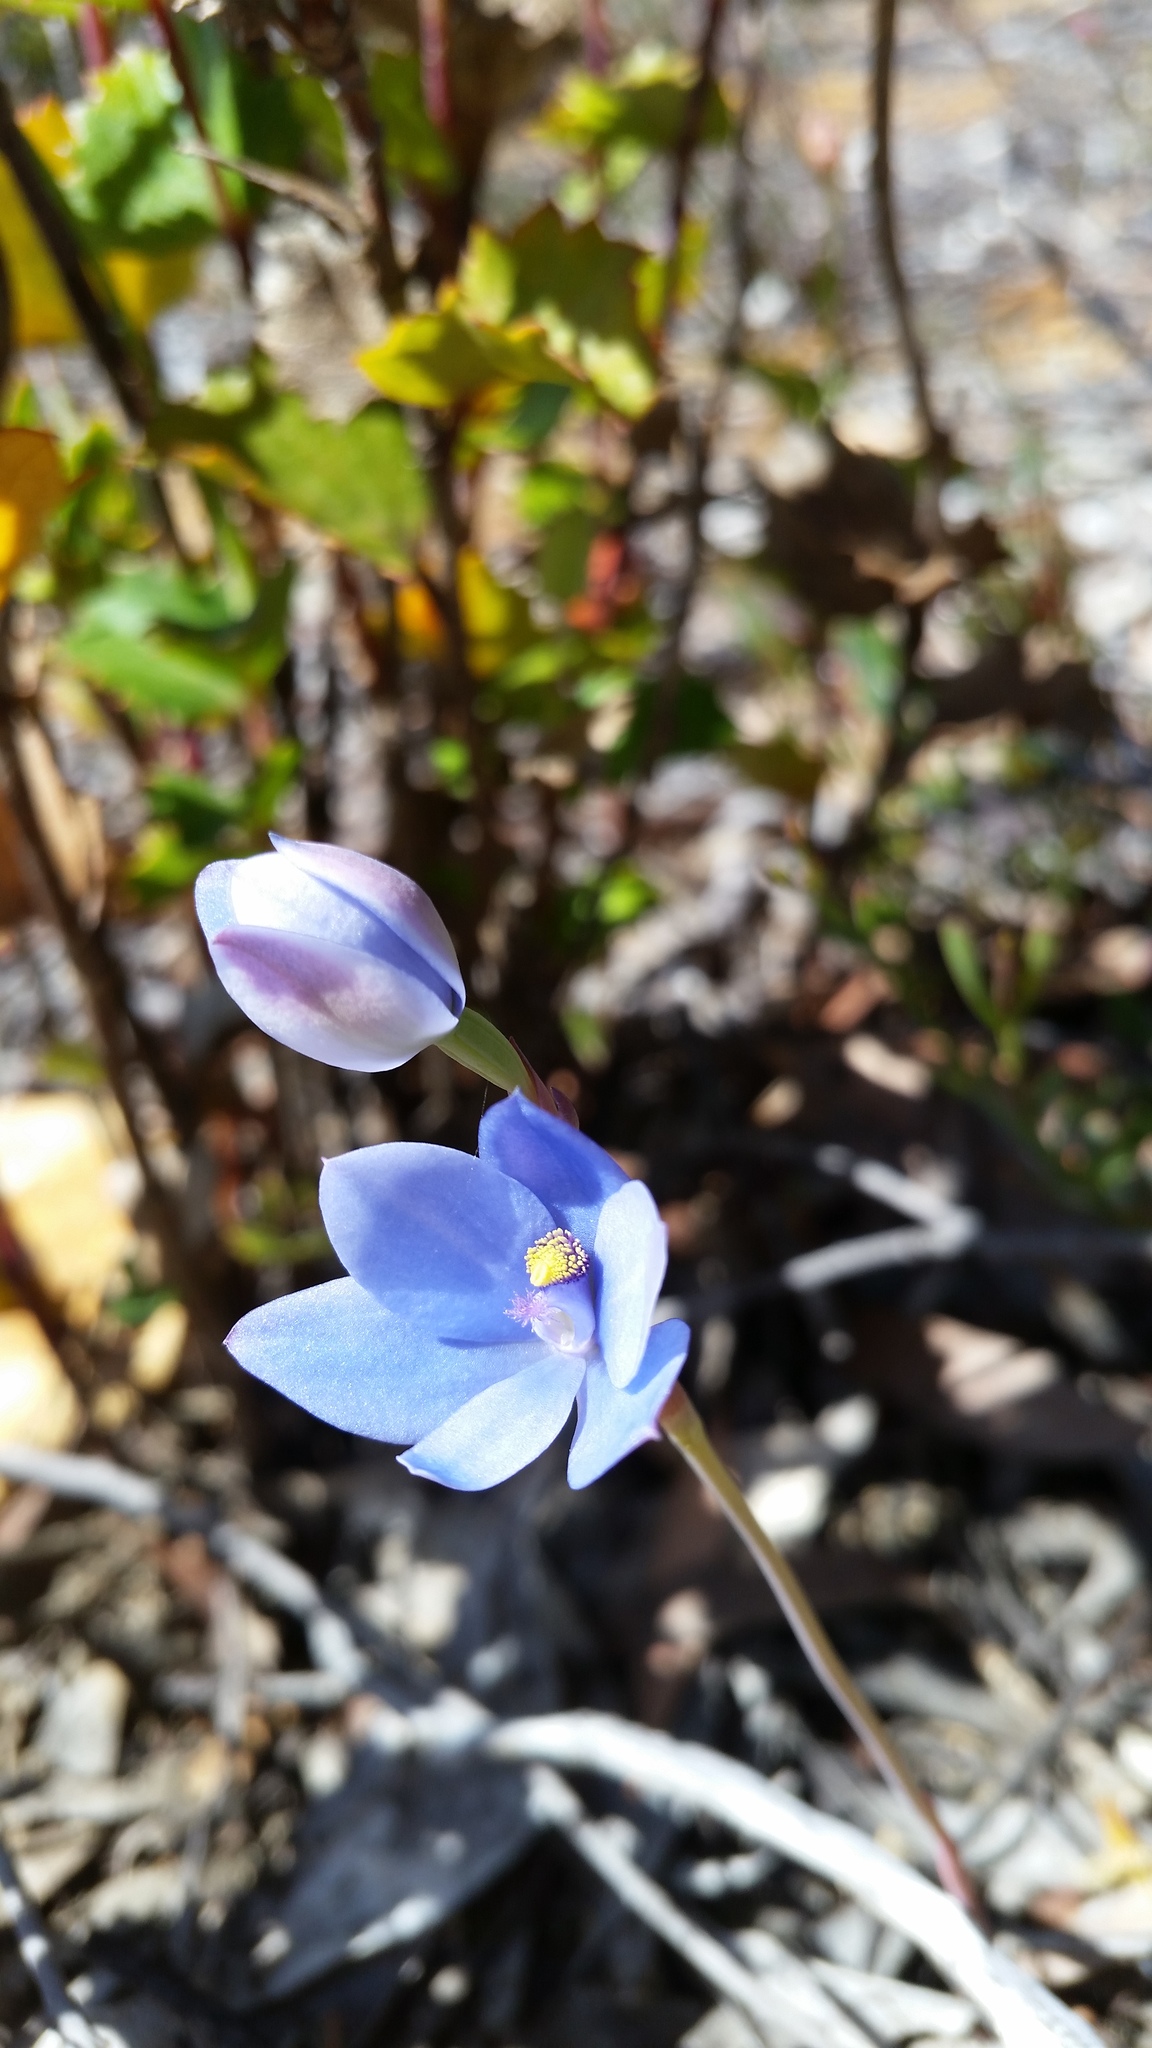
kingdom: Plantae
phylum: Tracheophyta
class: Liliopsida
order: Asparagales
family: Orchidaceae
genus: Thelymitra
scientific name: Thelymitra crinita
